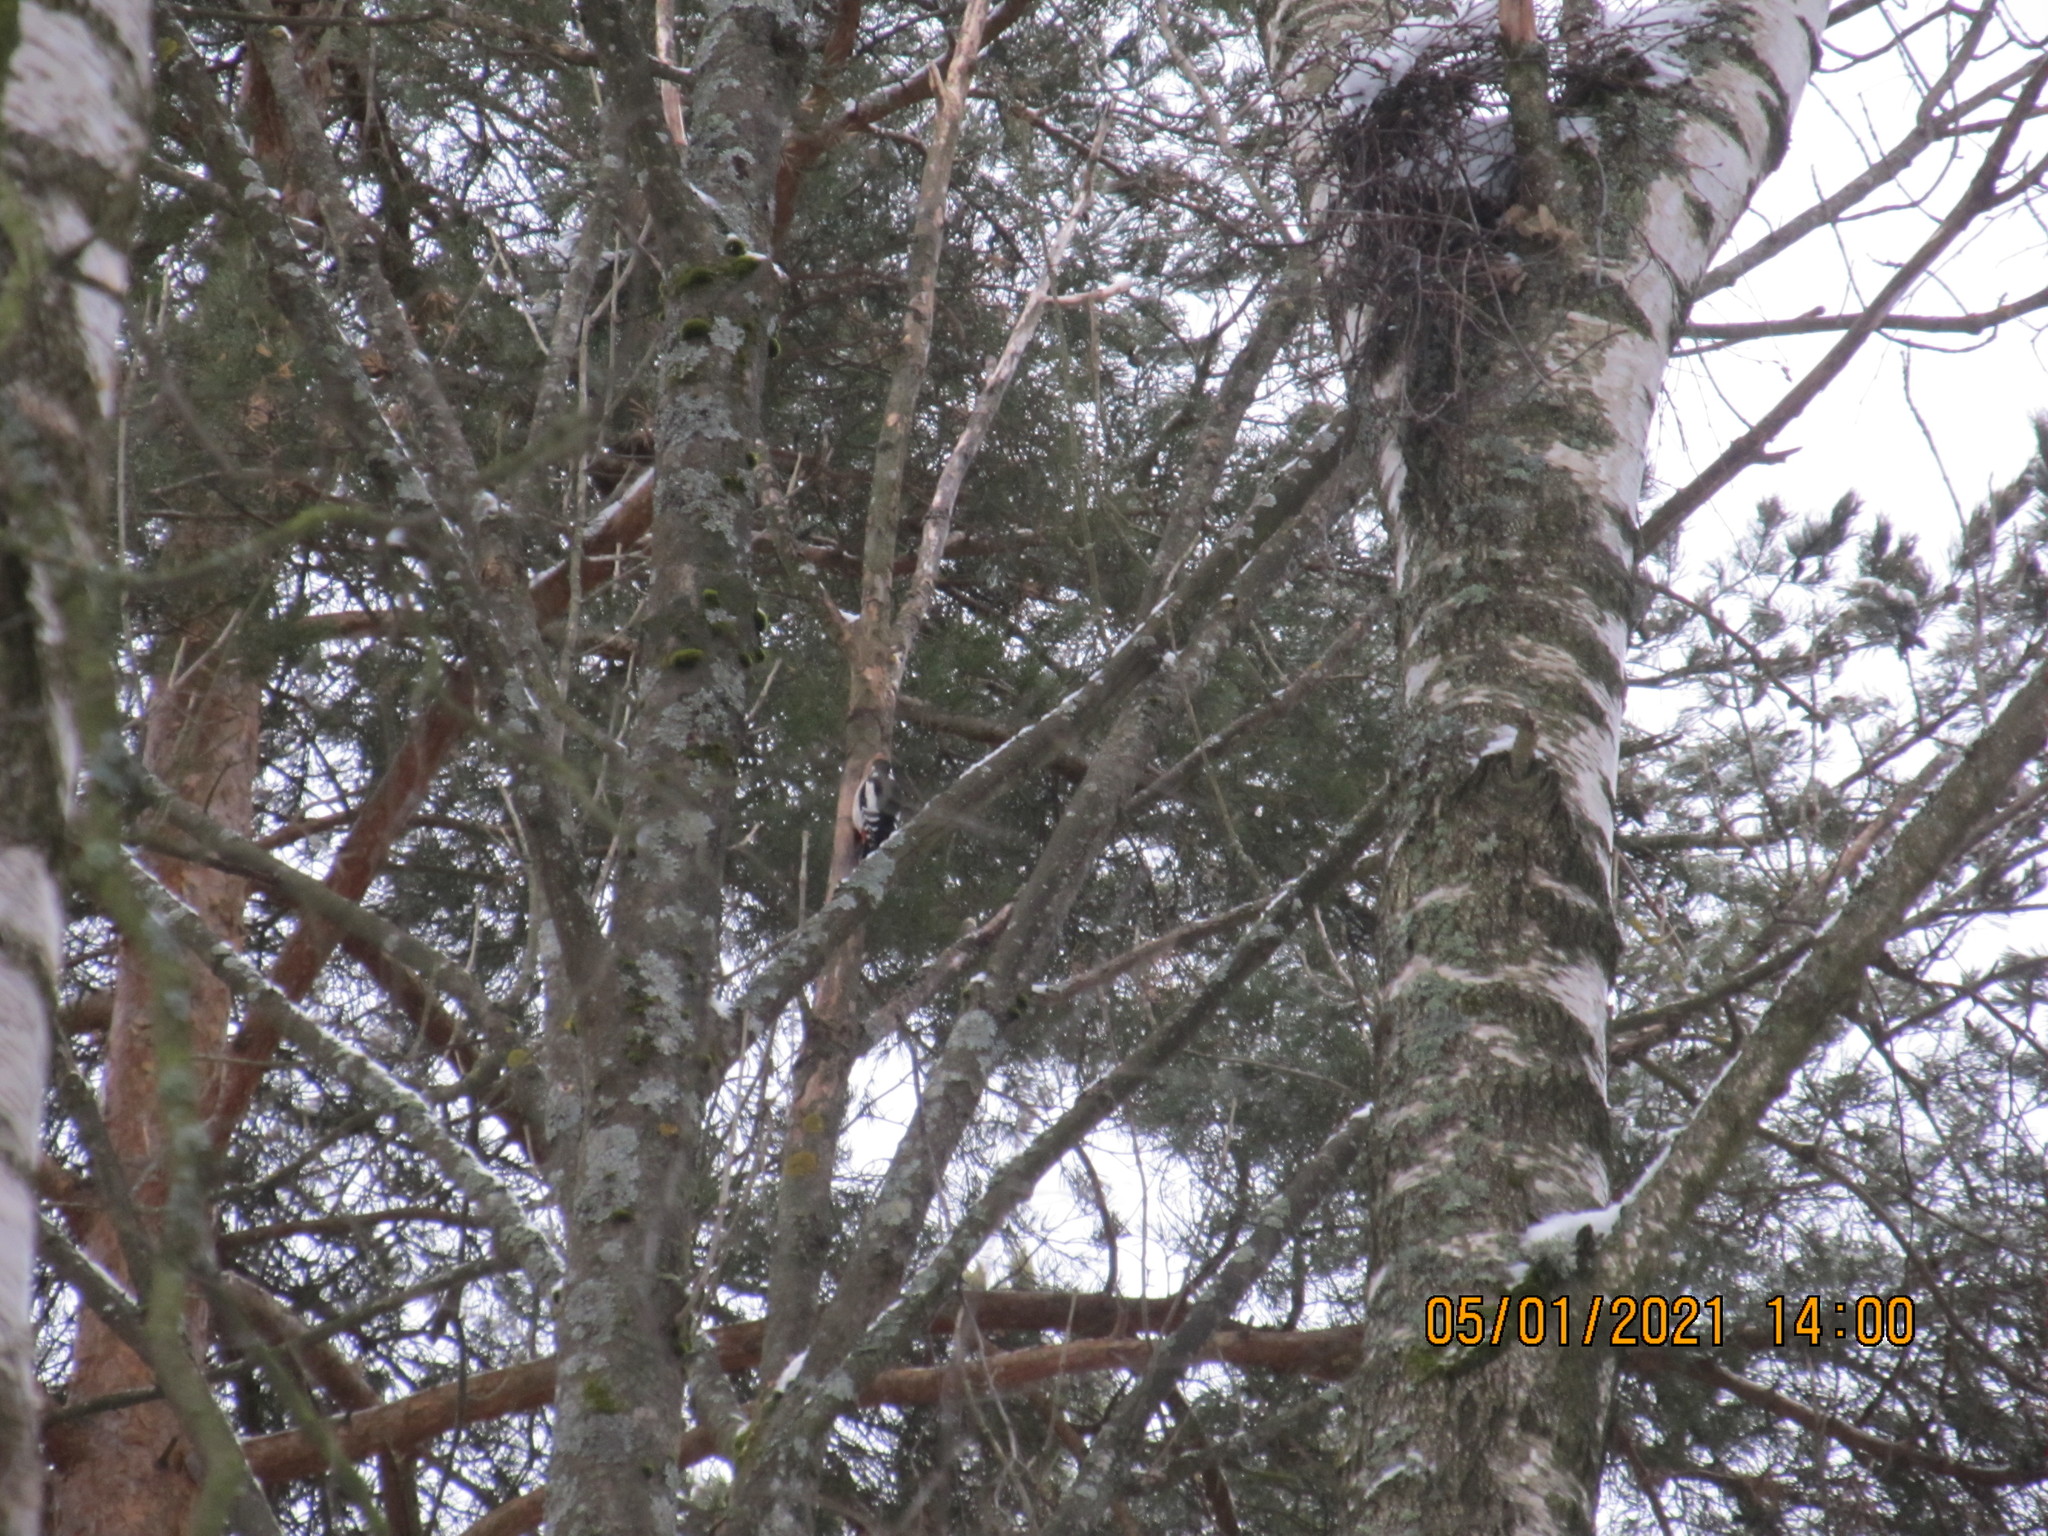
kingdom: Animalia
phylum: Chordata
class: Aves
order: Piciformes
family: Picidae
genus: Dendrocopos
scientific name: Dendrocopos major
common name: Great spotted woodpecker
